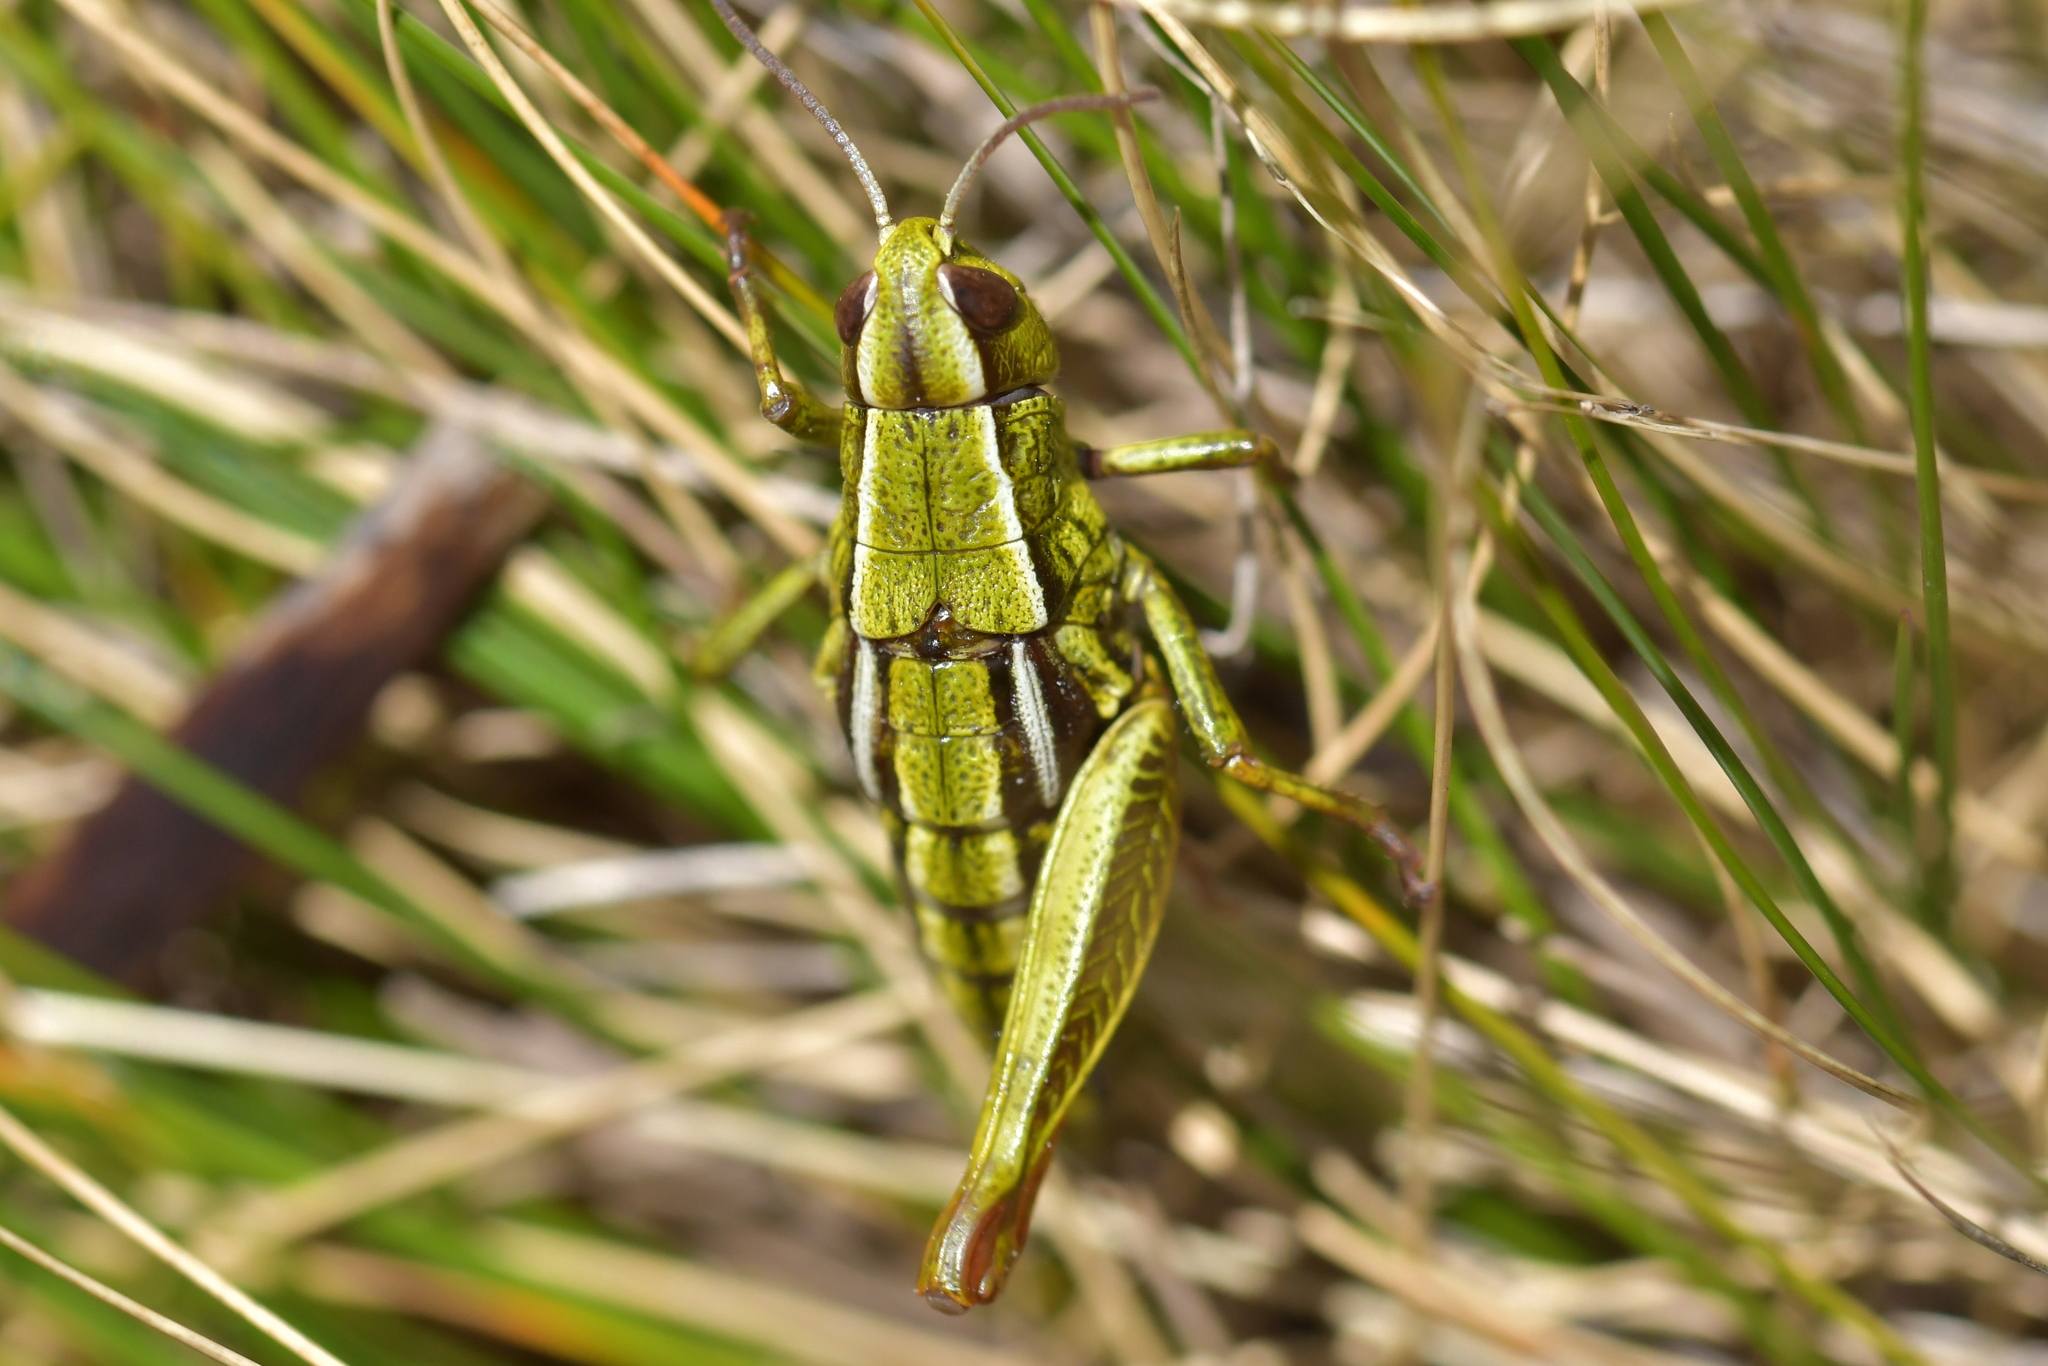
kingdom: Animalia
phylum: Arthropoda
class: Insecta
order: Orthoptera
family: Acrididae
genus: Sigaus
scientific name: Sigaus
